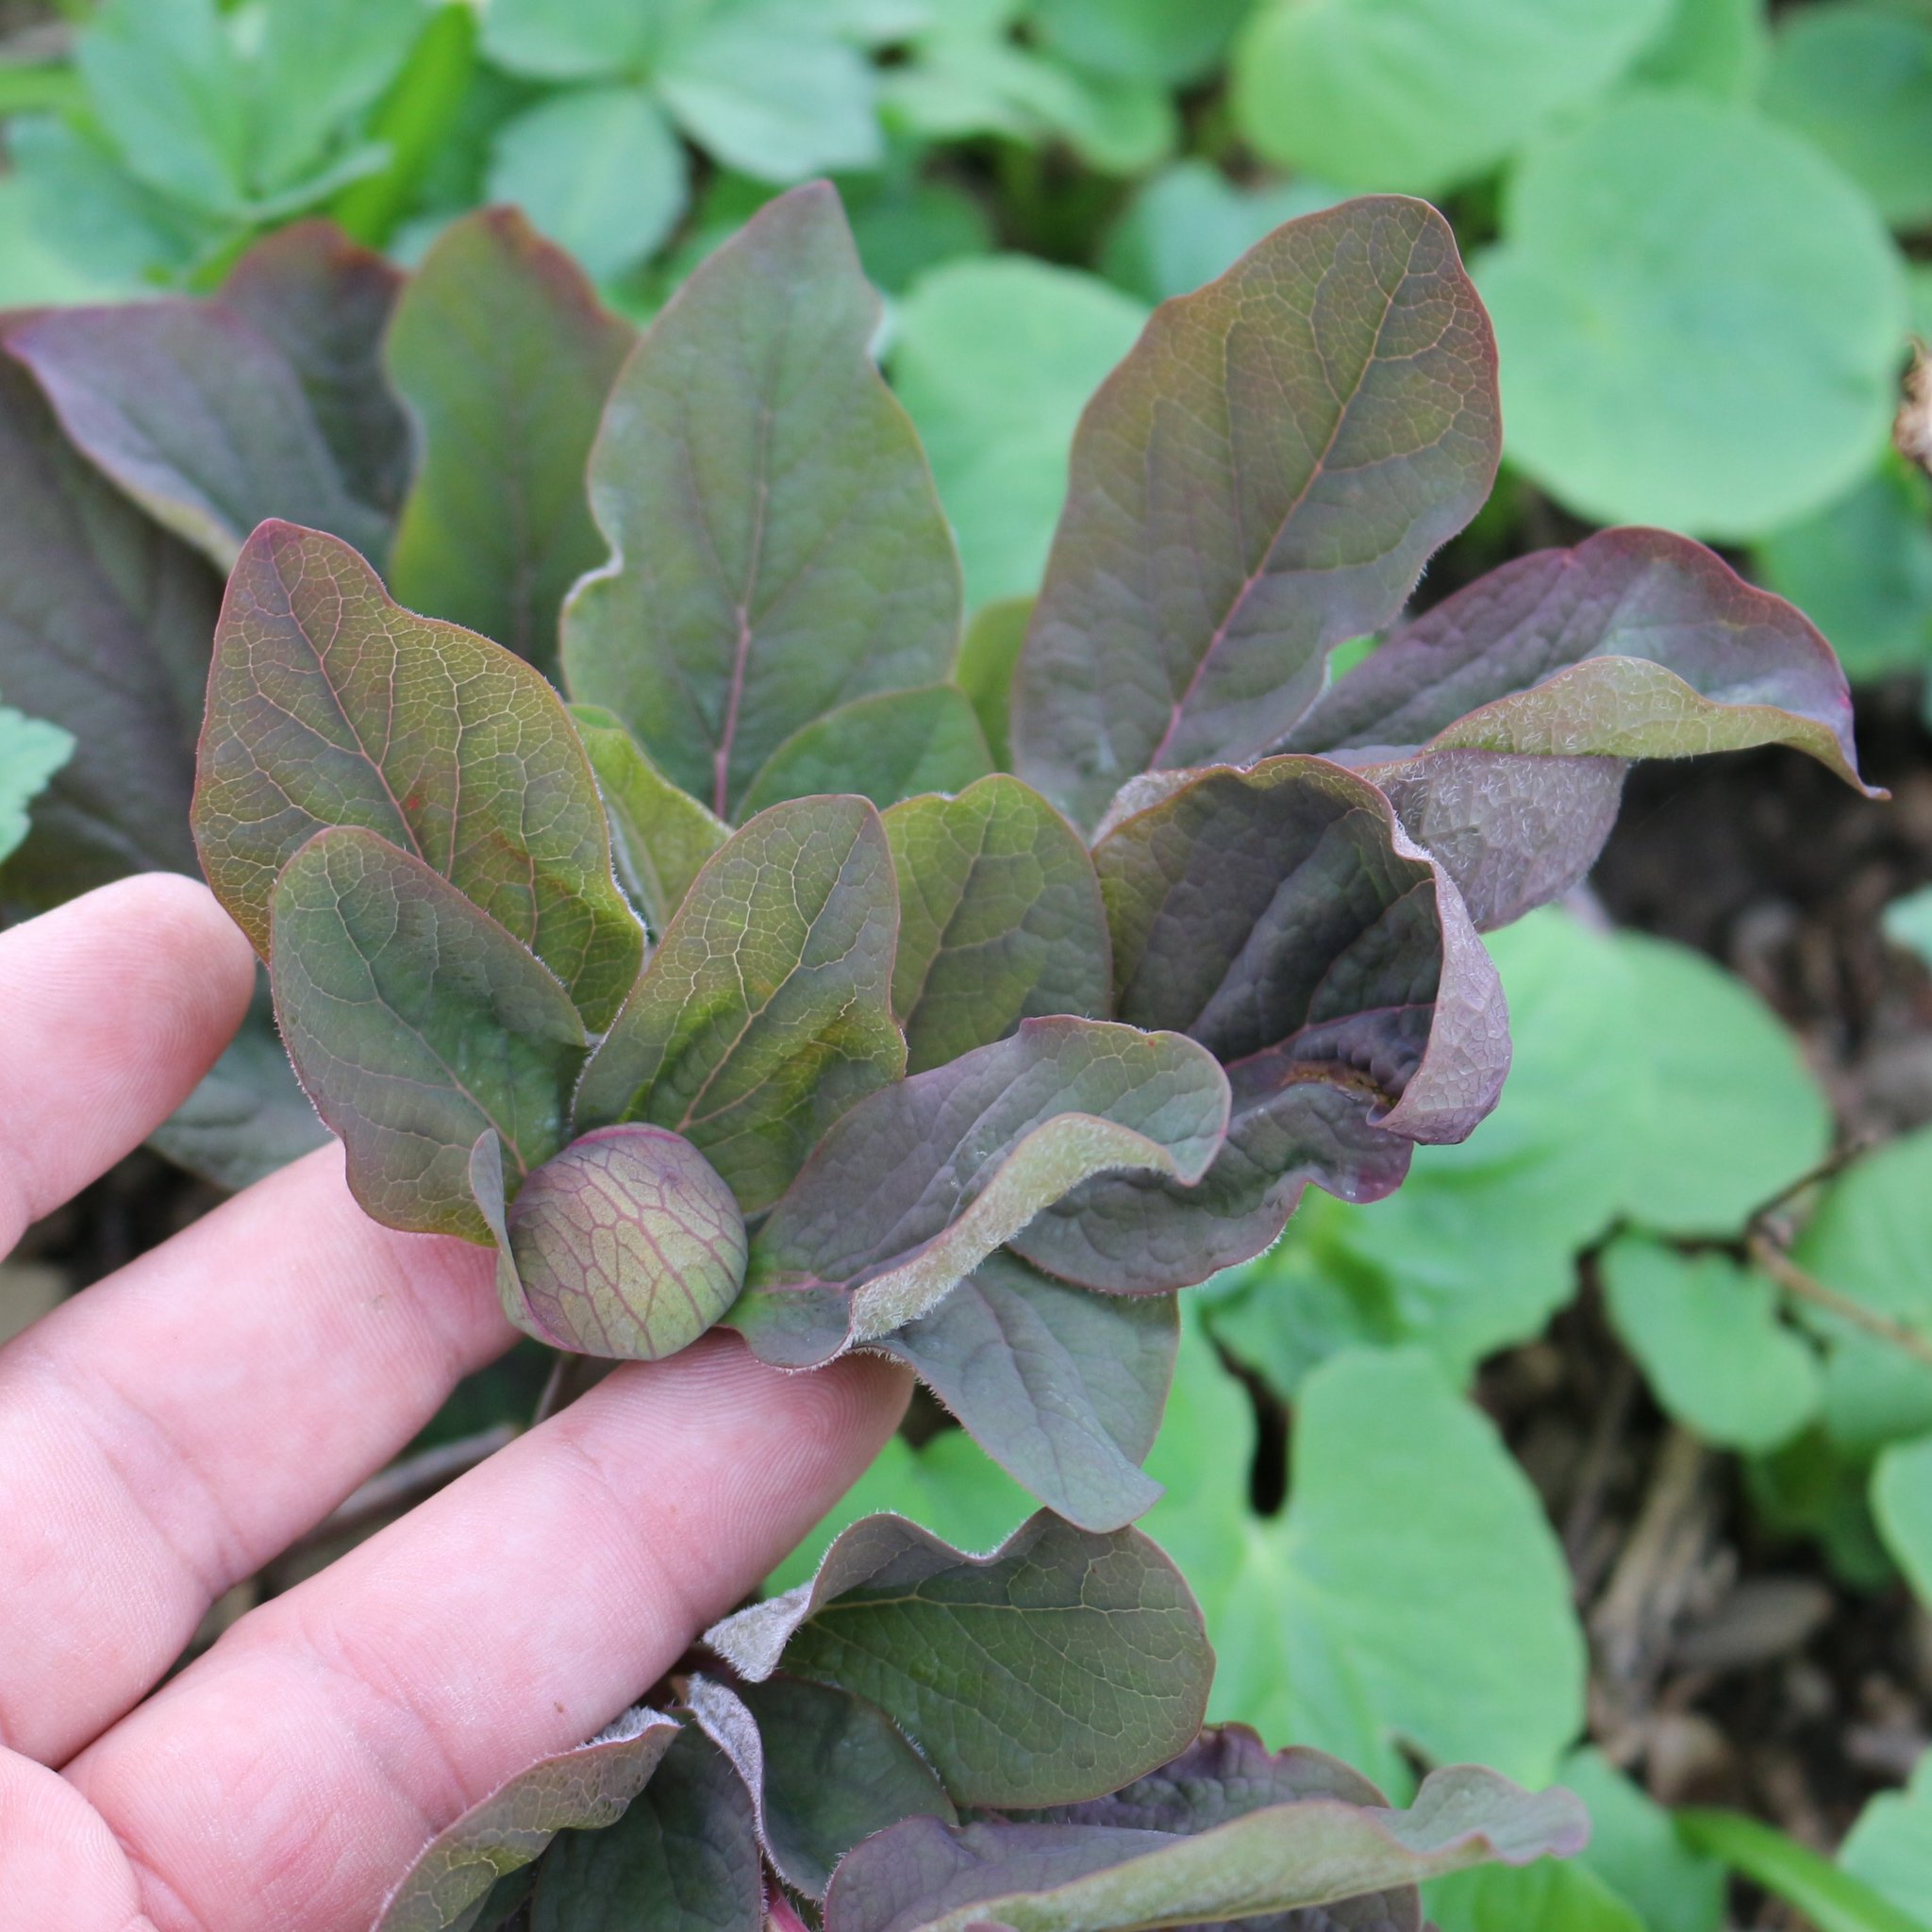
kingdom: Plantae
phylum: Tracheophyta
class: Magnoliopsida
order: Saxifragales
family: Paeoniaceae
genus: Paeonia
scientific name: Paeonia caucasica
